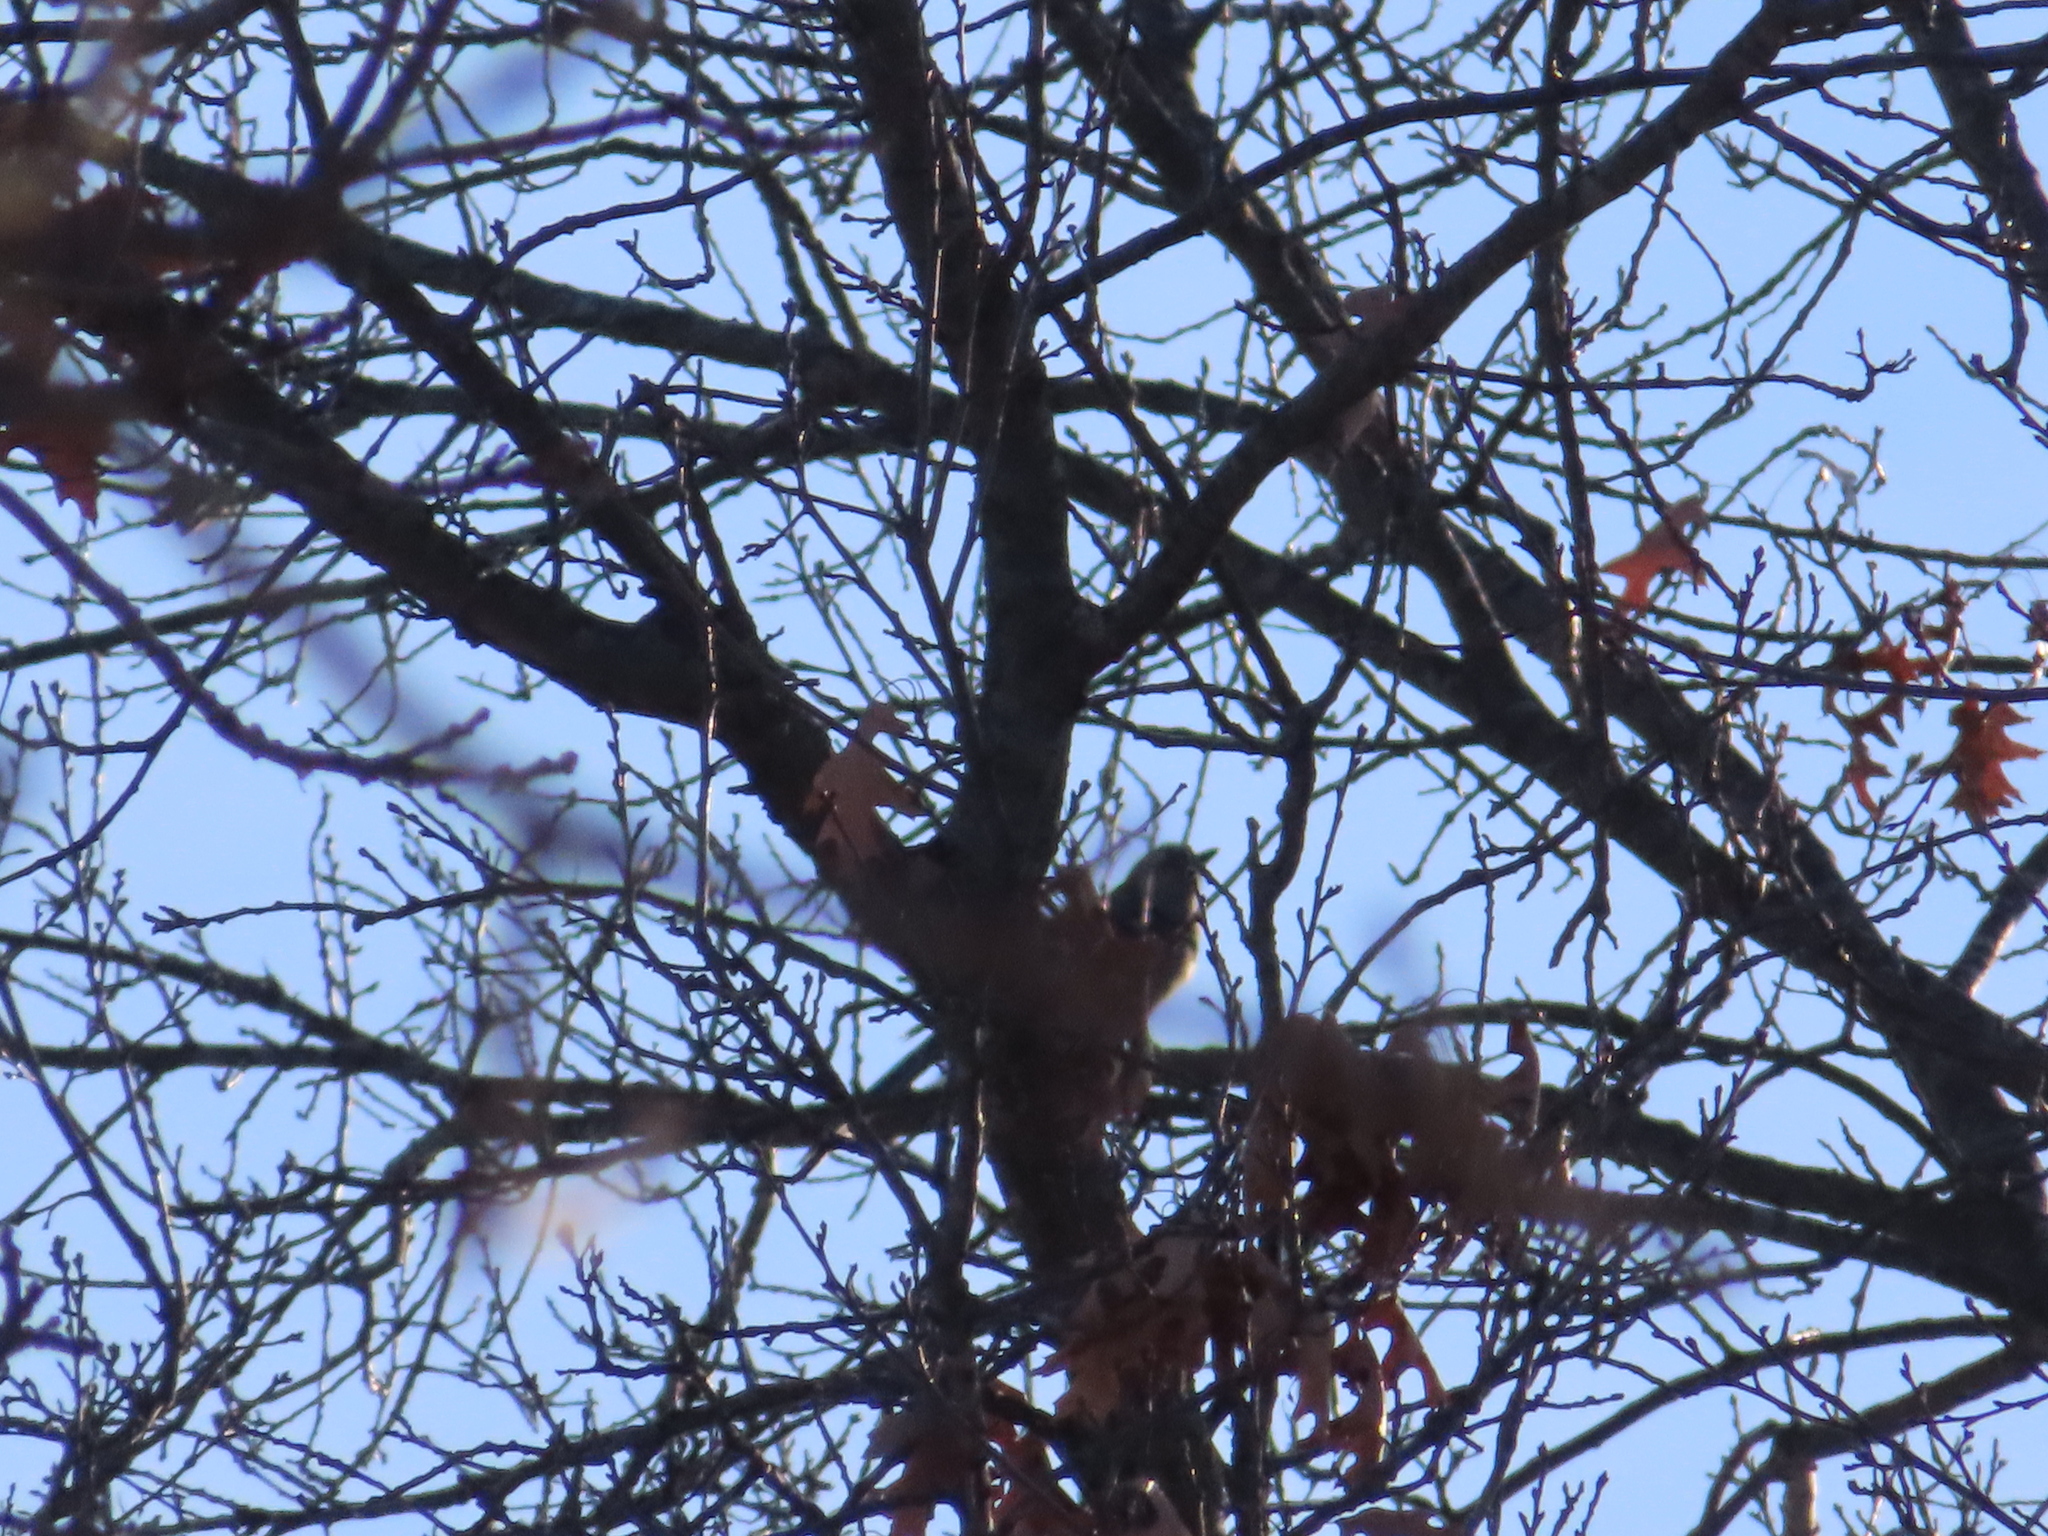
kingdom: Animalia
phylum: Chordata
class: Aves
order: Passeriformes
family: Corvidae
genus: Cyanocitta
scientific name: Cyanocitta cristata
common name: Blue jay
